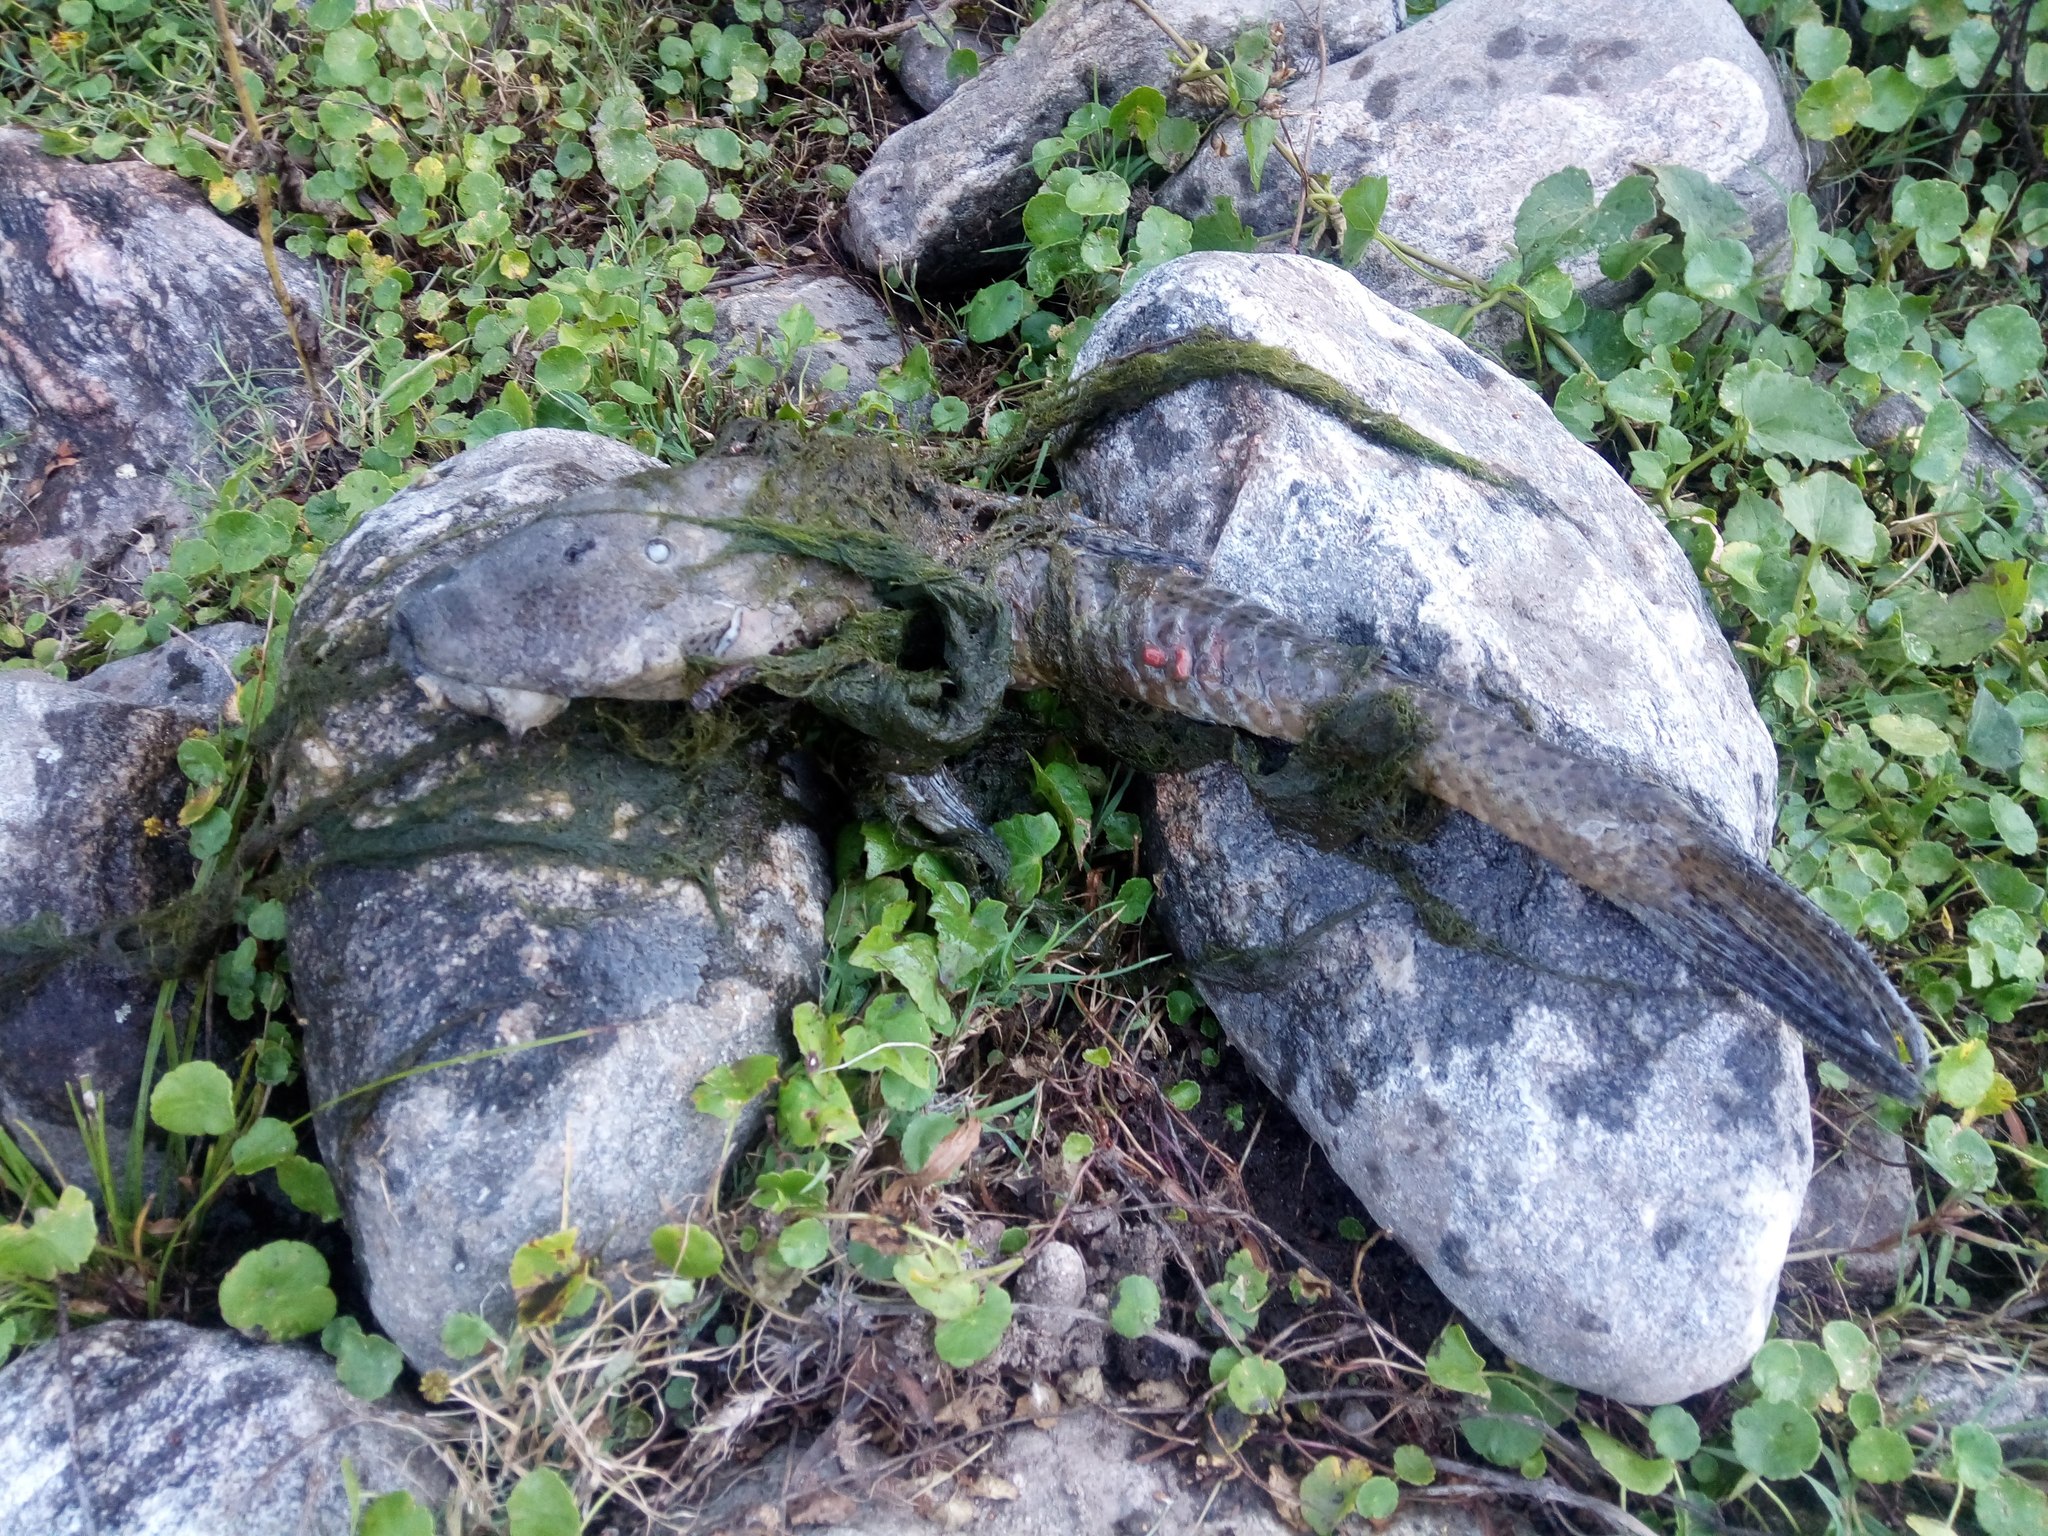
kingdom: Animalia
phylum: Chordata
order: Siluriformes
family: Loricariidae
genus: Hypostomus
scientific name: Hypostomus paranensis
